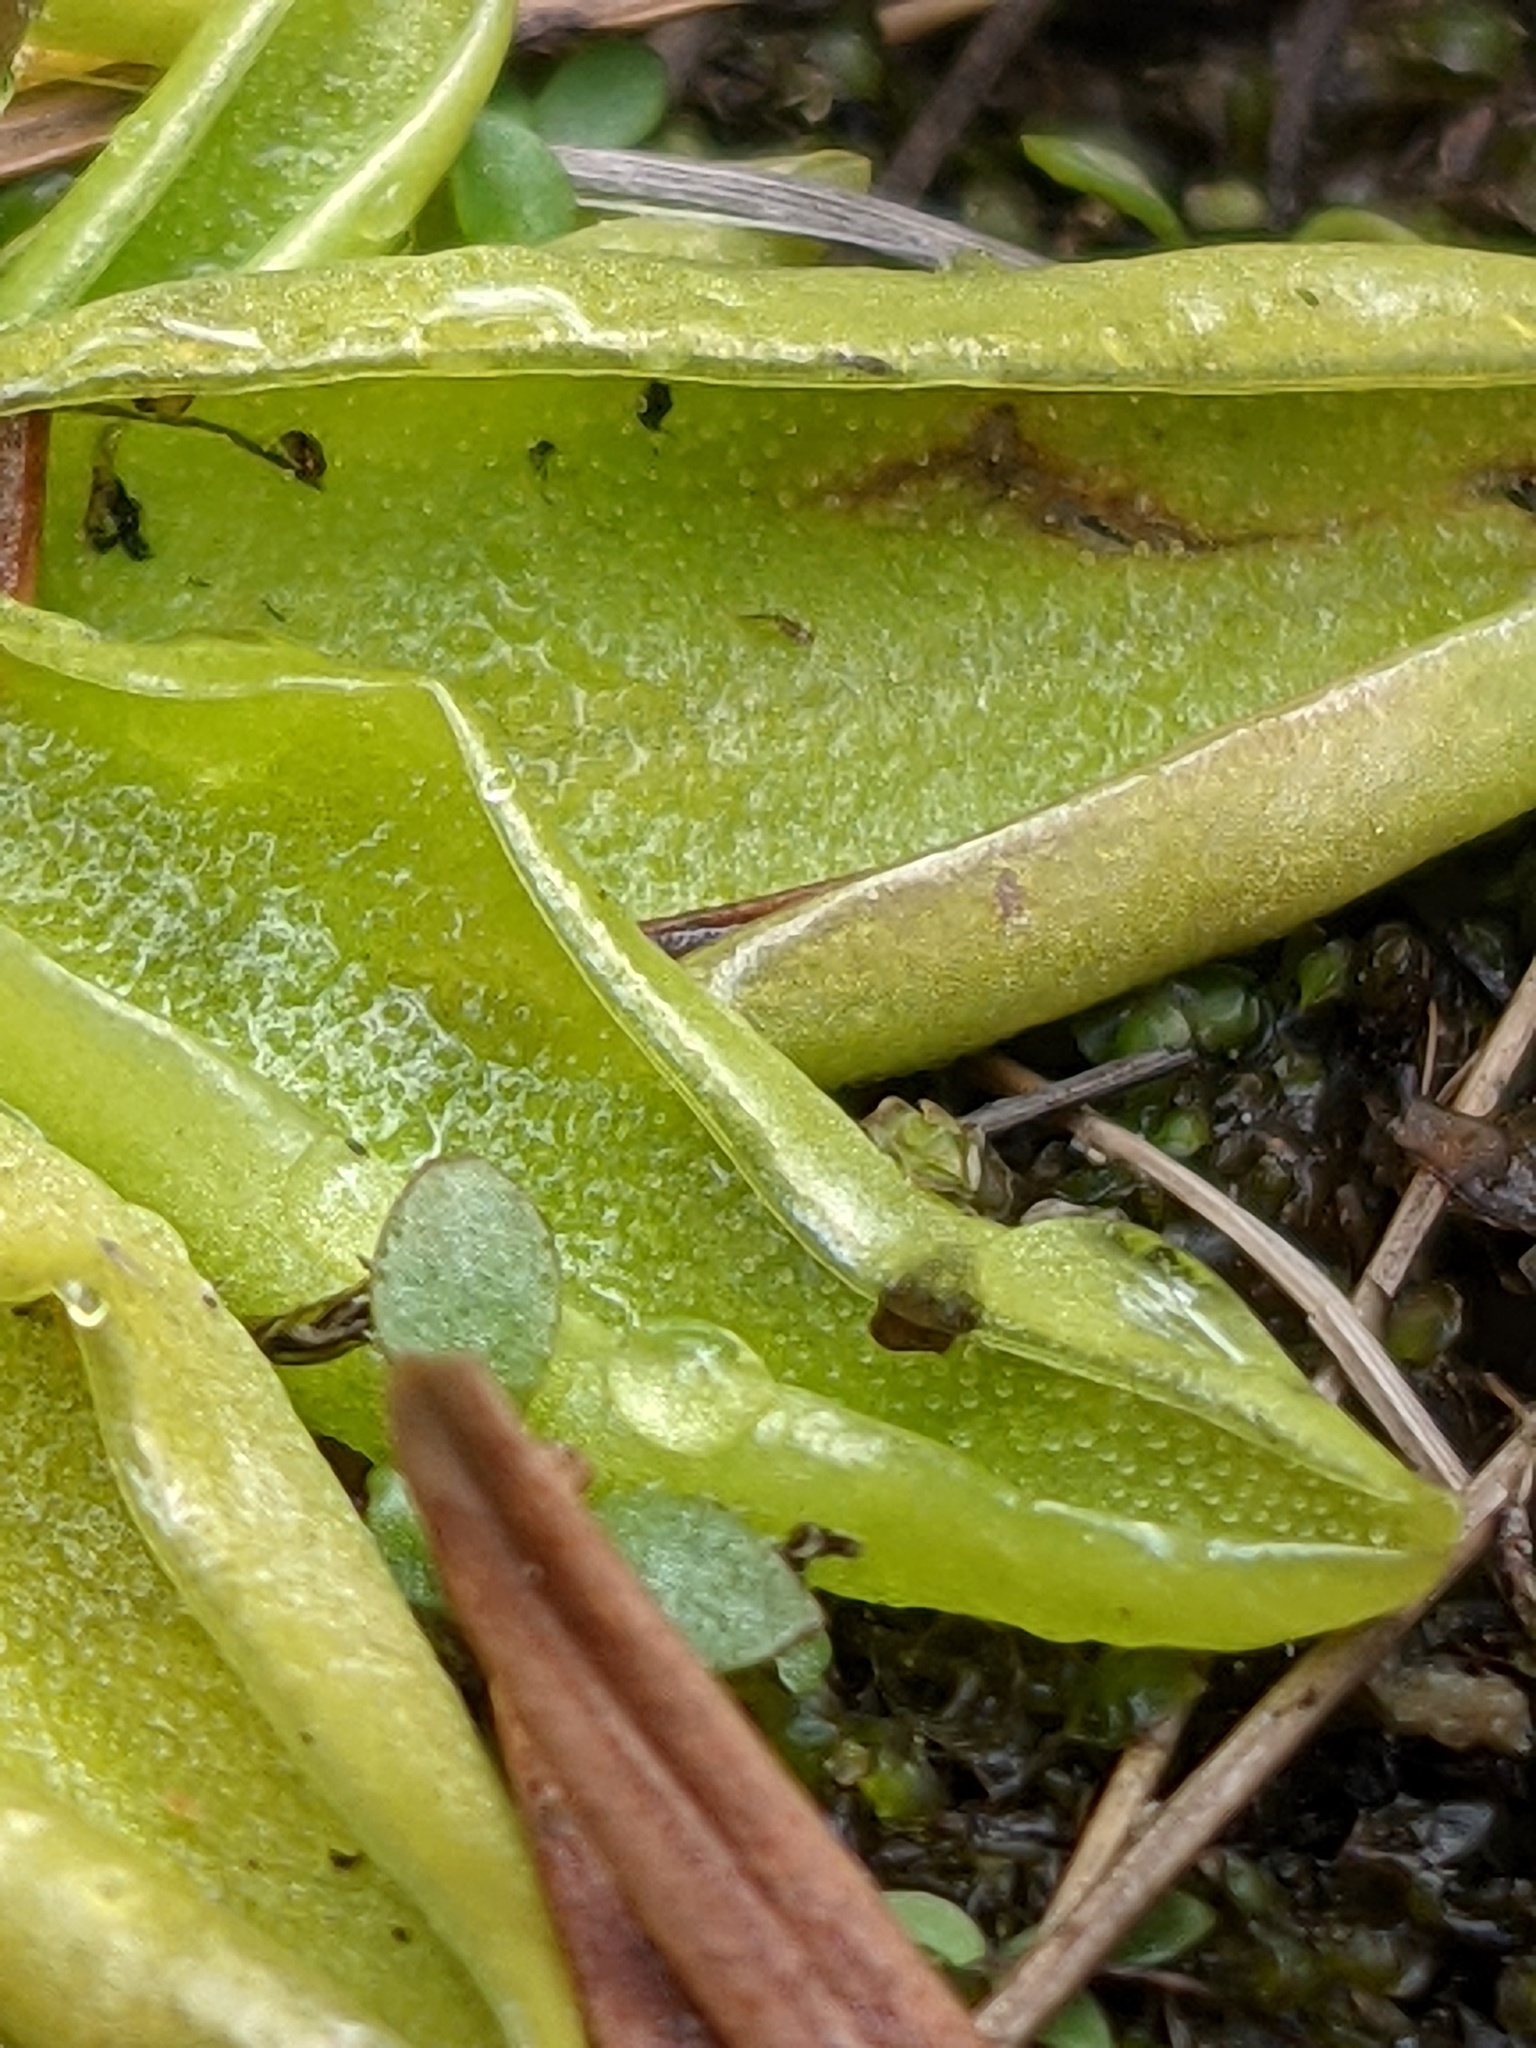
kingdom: Plantae
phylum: Tracheophyta
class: Magnoliopsida
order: Lamiales
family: Lentibulariaceae
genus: Pinguicula
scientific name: Pinguicula vulgaris
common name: Common butterwort
